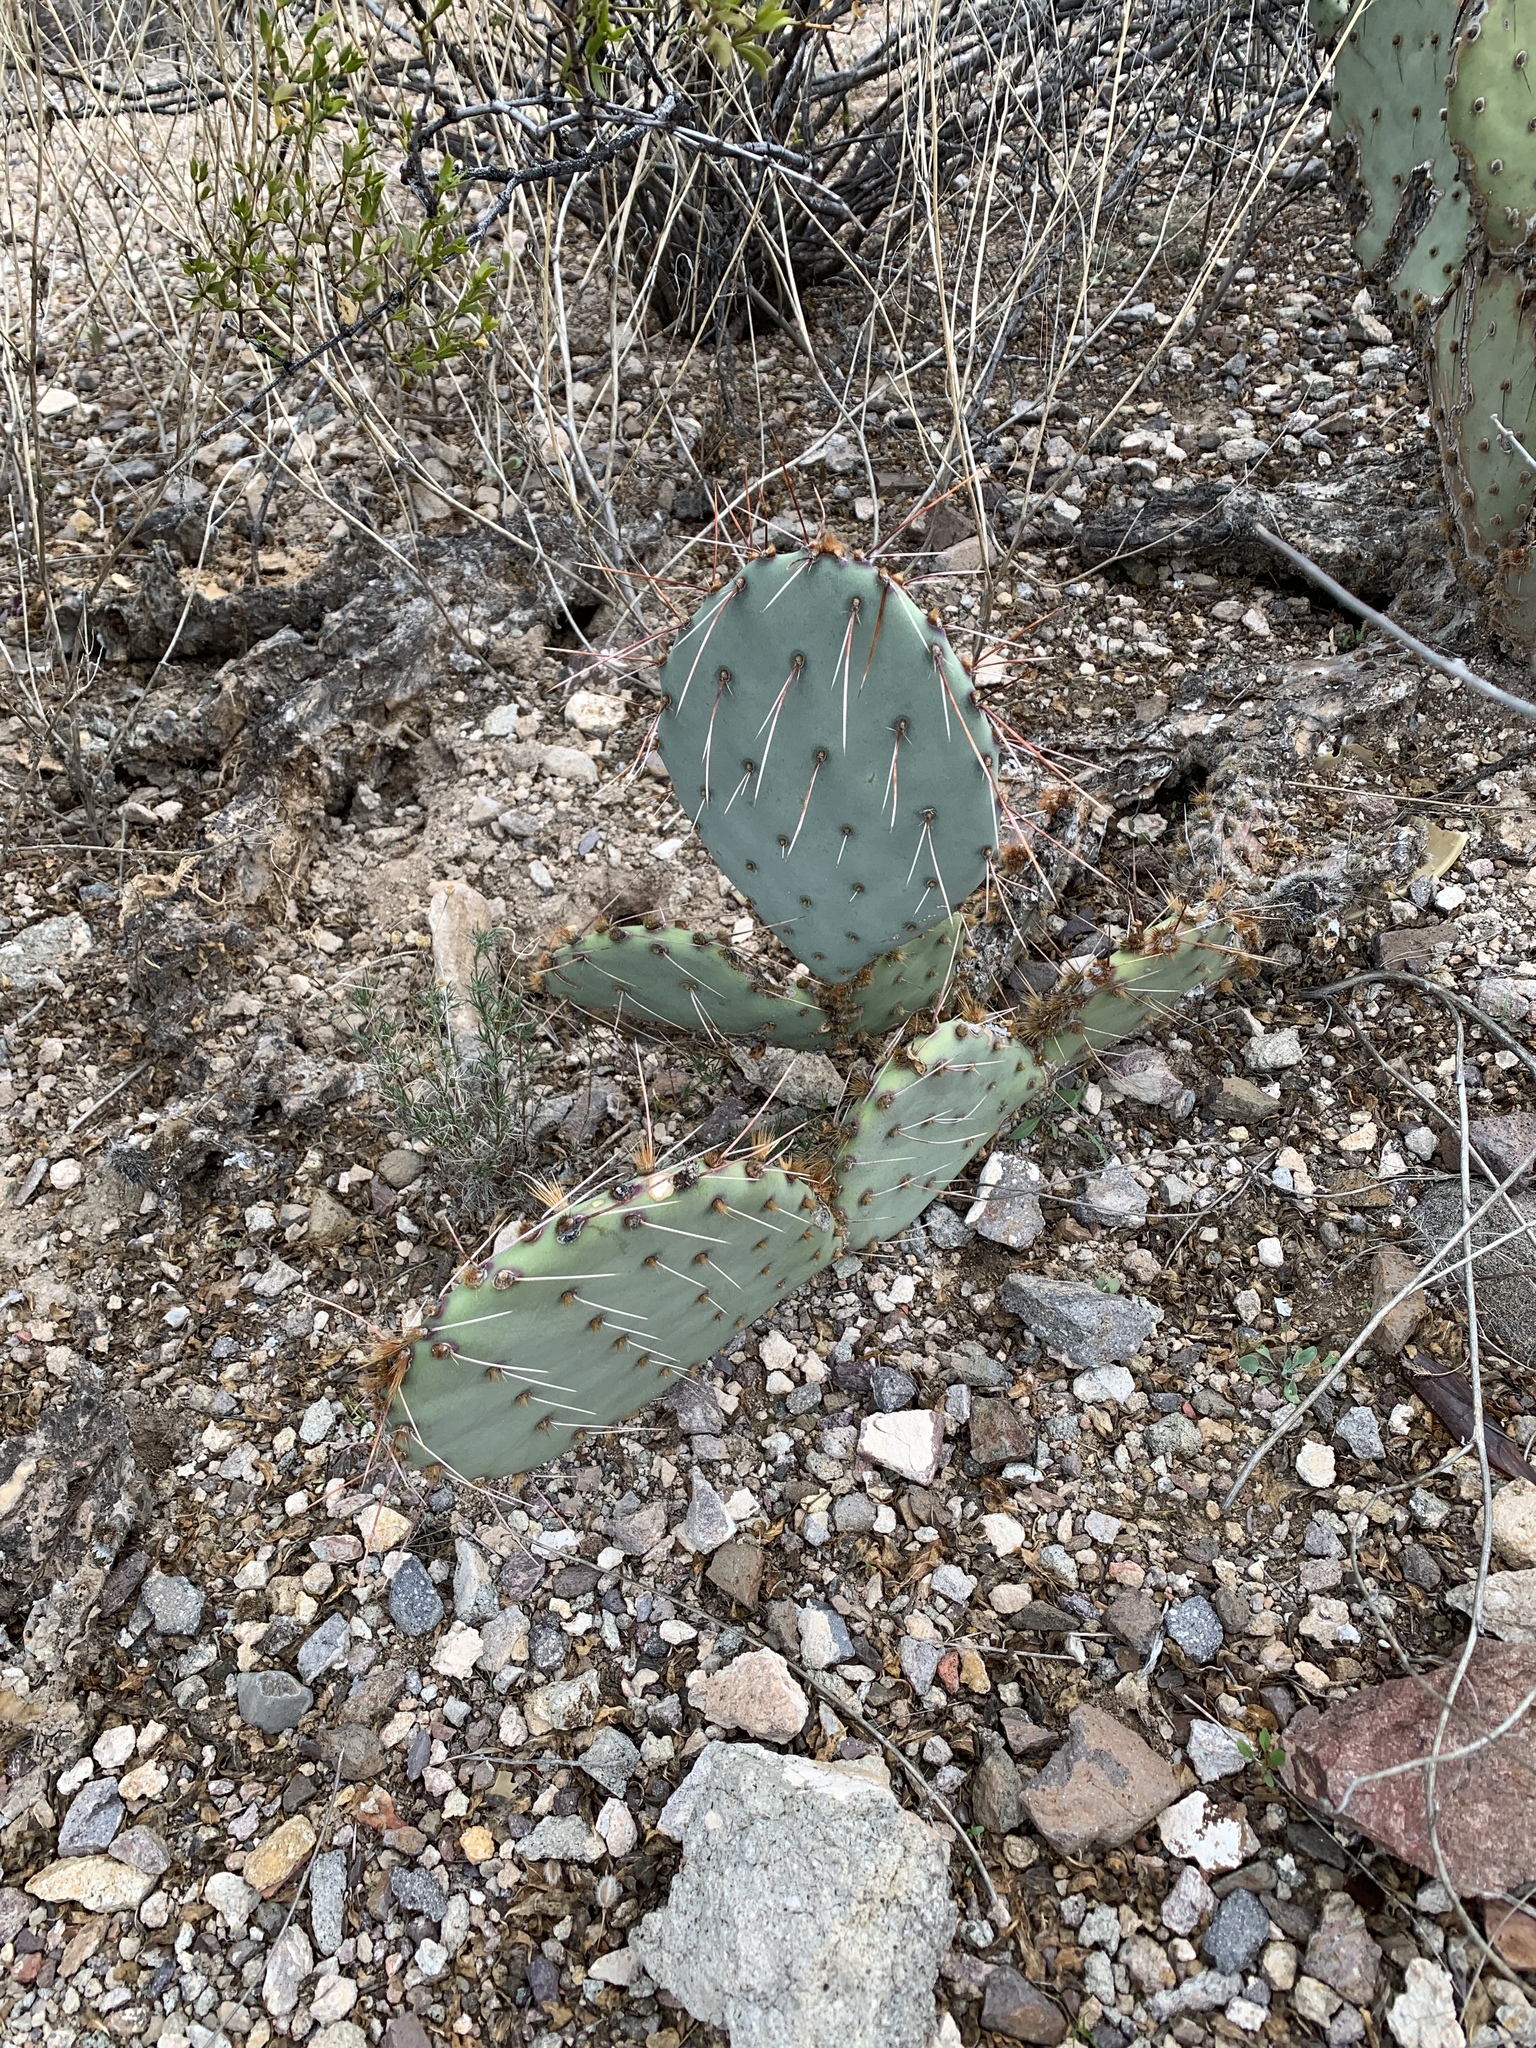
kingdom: Plantae
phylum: Tracheophyta
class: Magnoliopsida
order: Caryophyllales
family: Cactaceae
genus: Opuntia
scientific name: Opuntia engelmannii
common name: Cactus-apple
